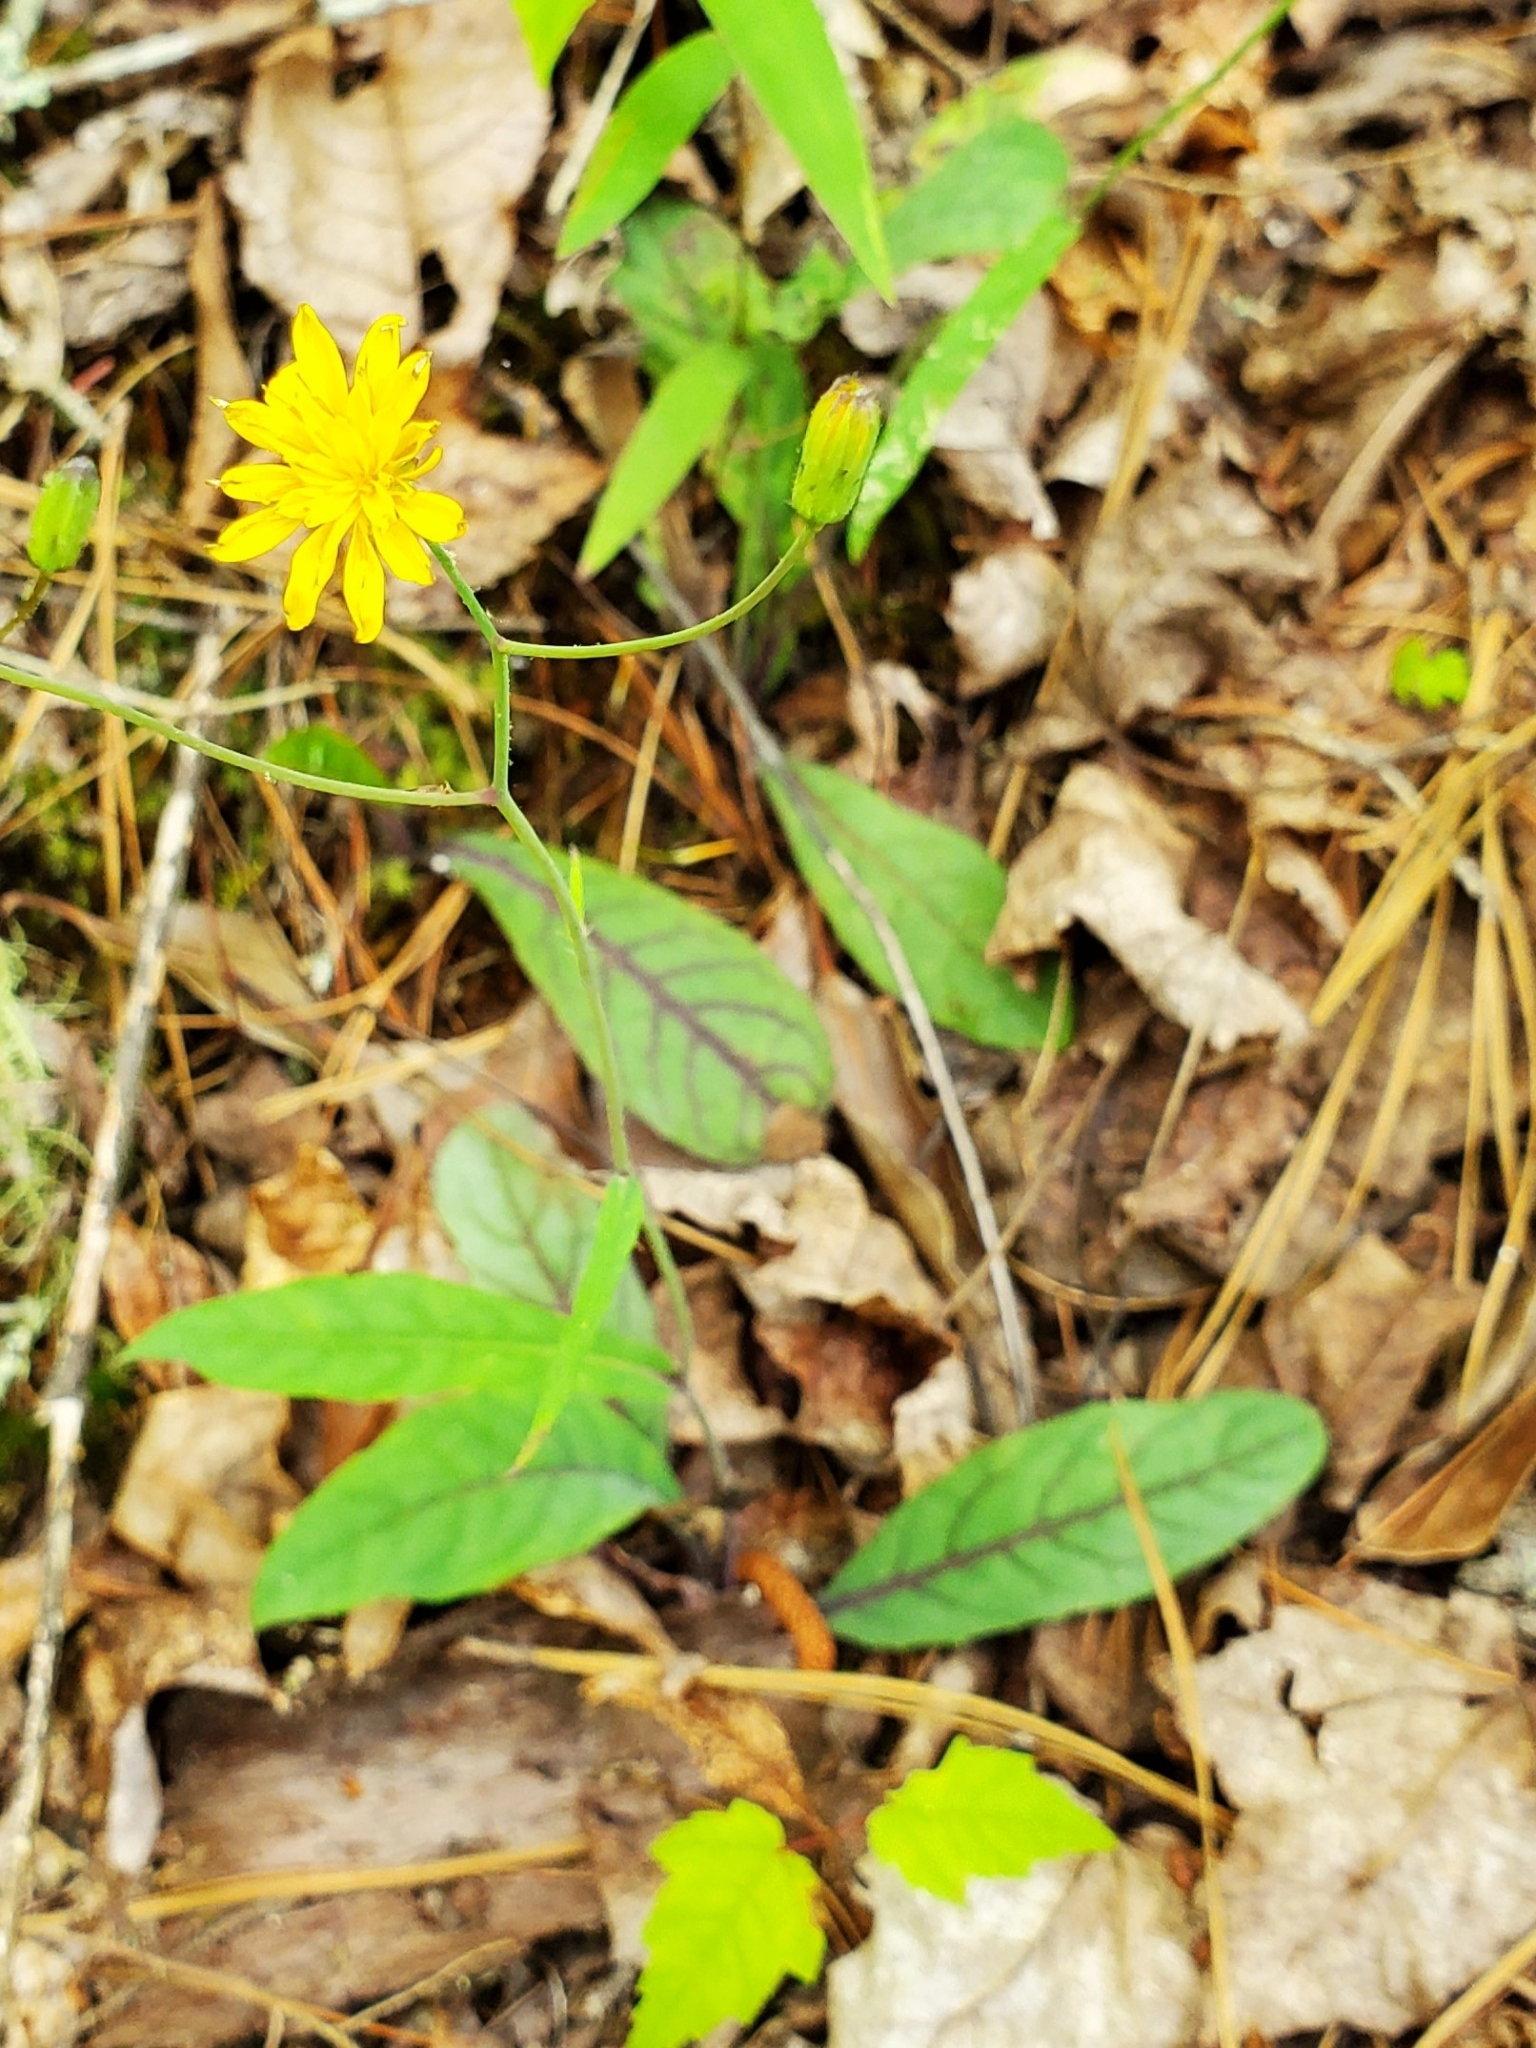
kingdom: Plantae
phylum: Tracheophyta
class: Magnoliopsida
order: Asterales
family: Asteraceae
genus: Hieracium
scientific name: Hieracium venosum
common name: Rattlesnake hawkweed
